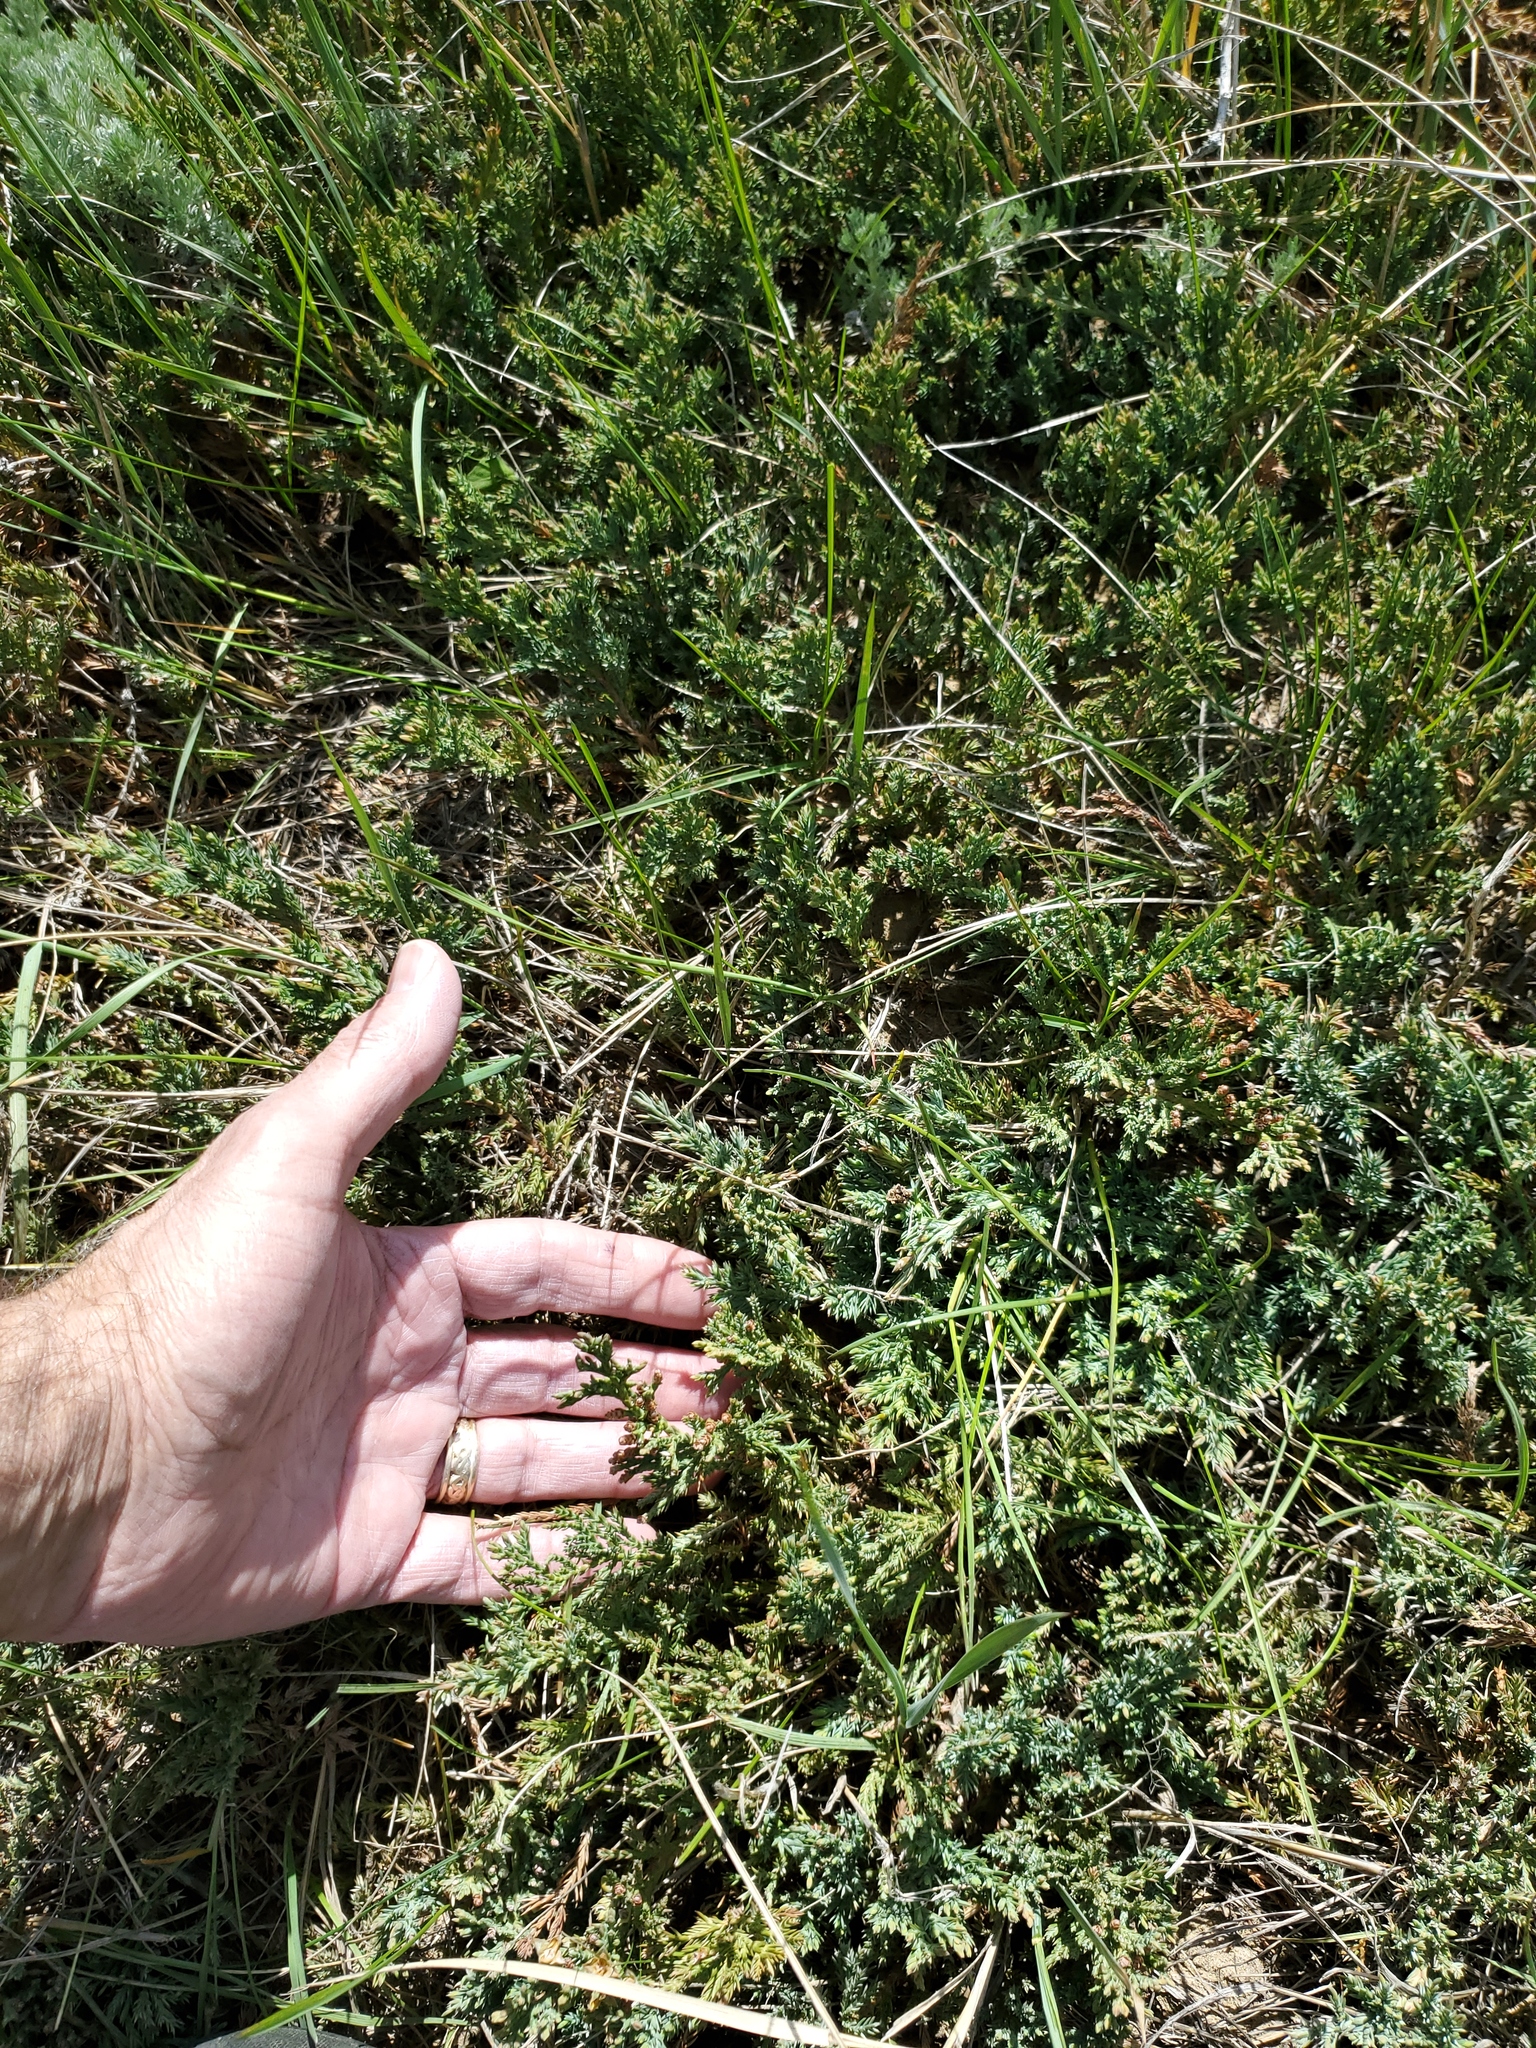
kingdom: Plantae
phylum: Tracheophyta
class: Pinopsida
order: Pinales
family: Cupressaceae
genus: Juniperus
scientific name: Juniperus horizontalis
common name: Creeping juniper
